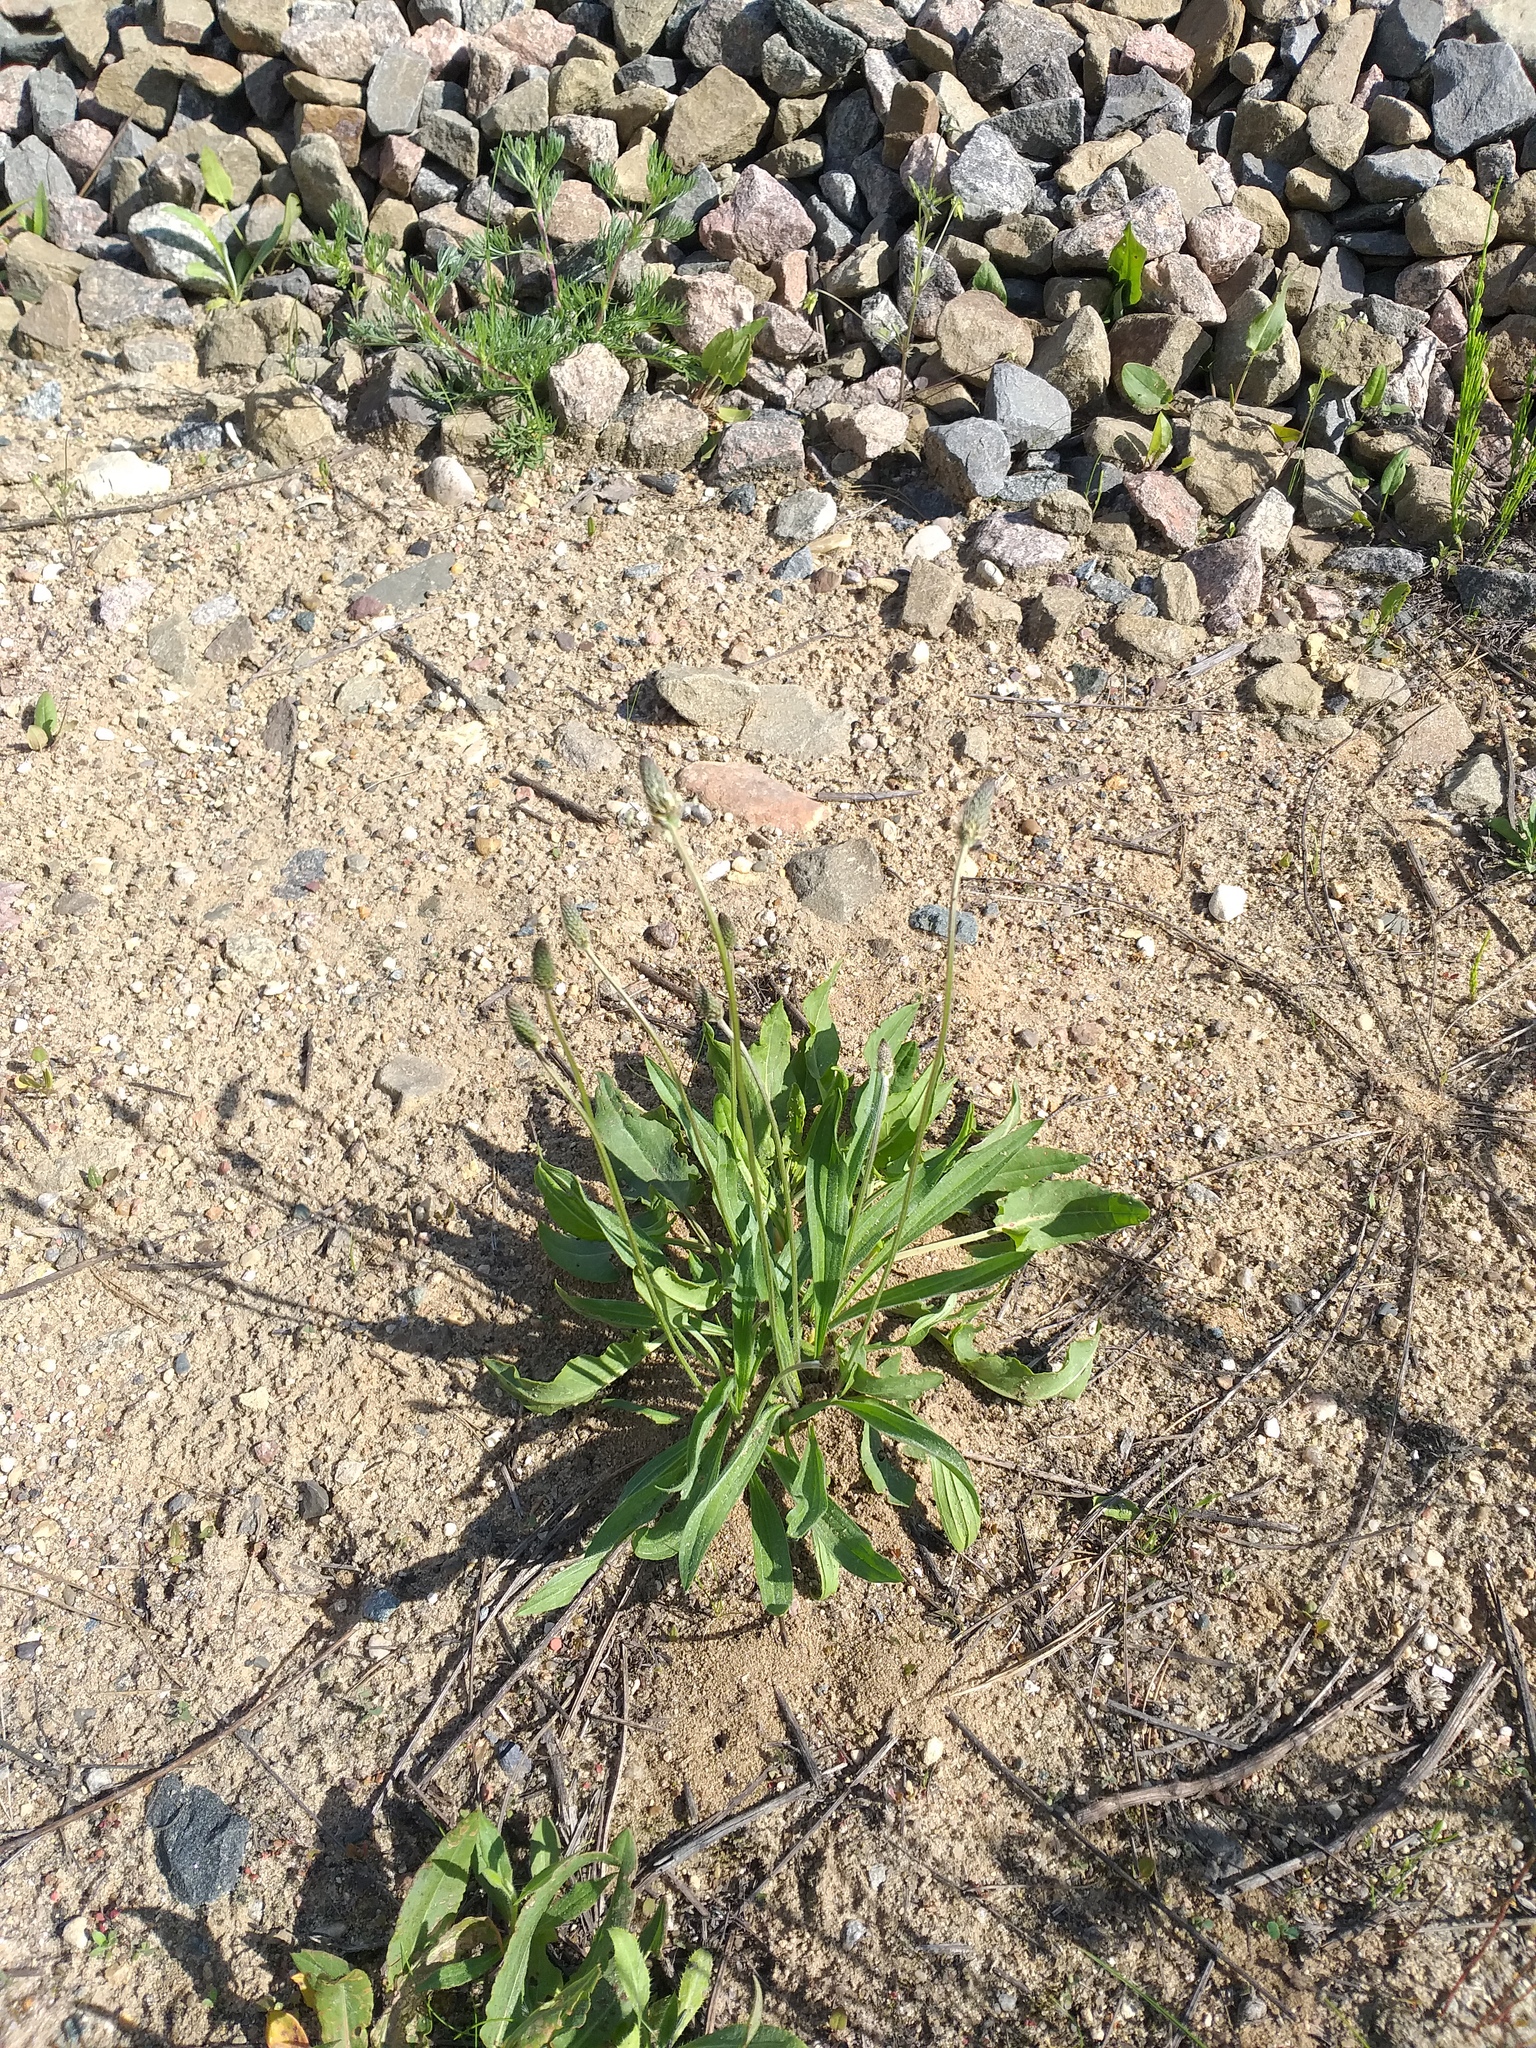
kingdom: Plantae
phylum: Tracheophyta
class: Magnoliopsida
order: Lamiales
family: Plantaginaceae
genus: Plantago
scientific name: Plantago lanceolata
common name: Ribwort plantain
